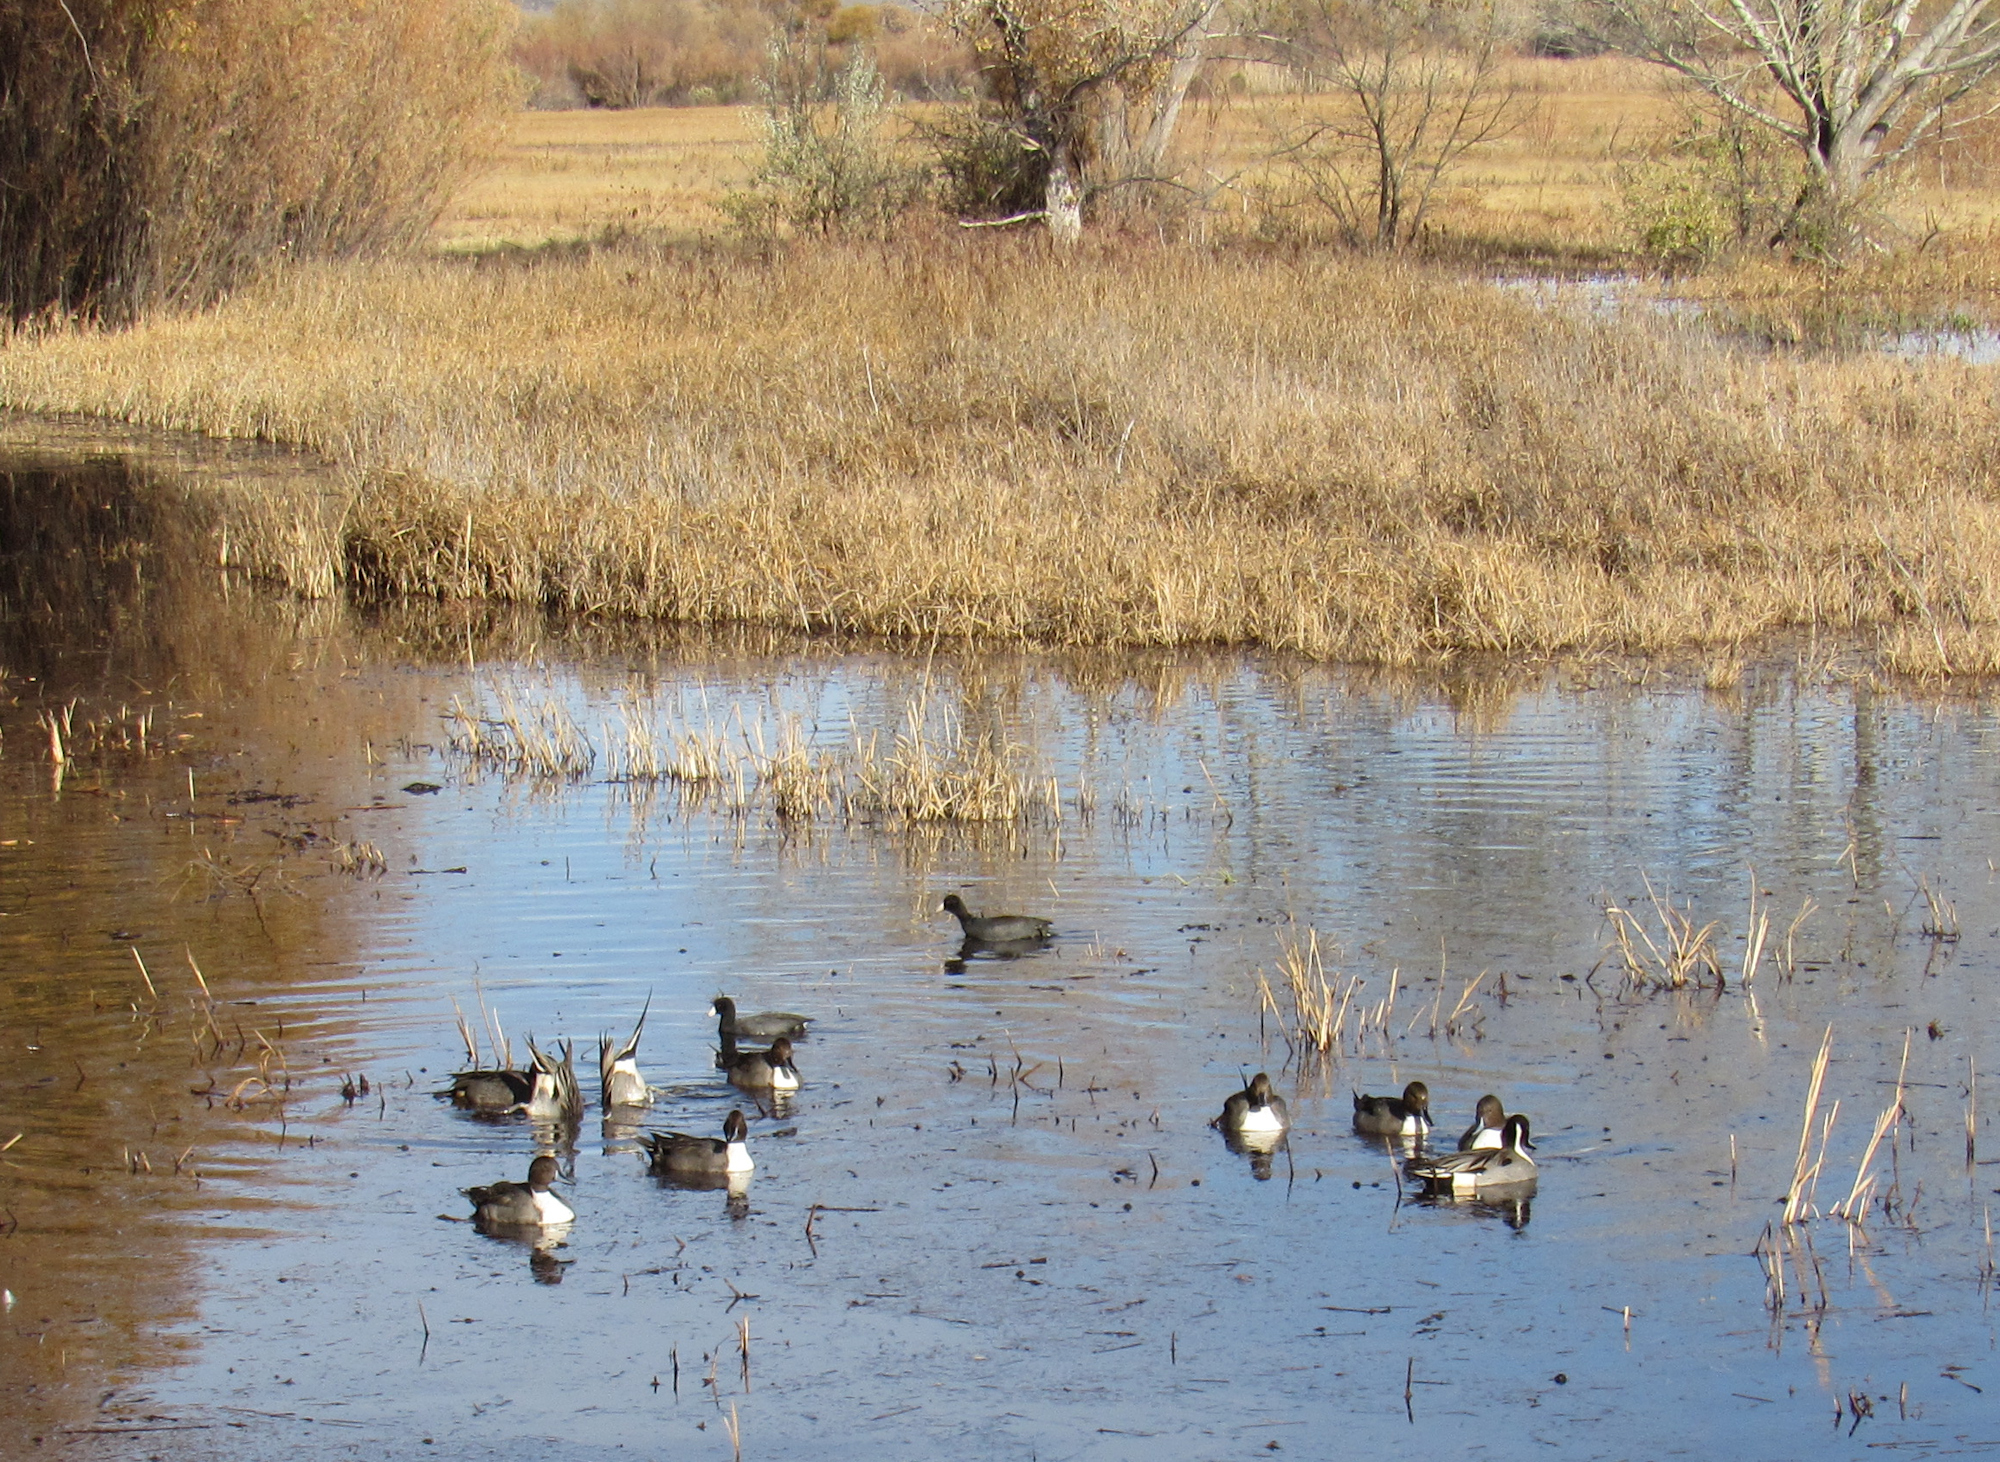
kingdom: Animalia
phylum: Chordata
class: Aves
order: Gruiformes
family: Rallidae
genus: Fulica
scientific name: Fulica americana
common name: American coot
